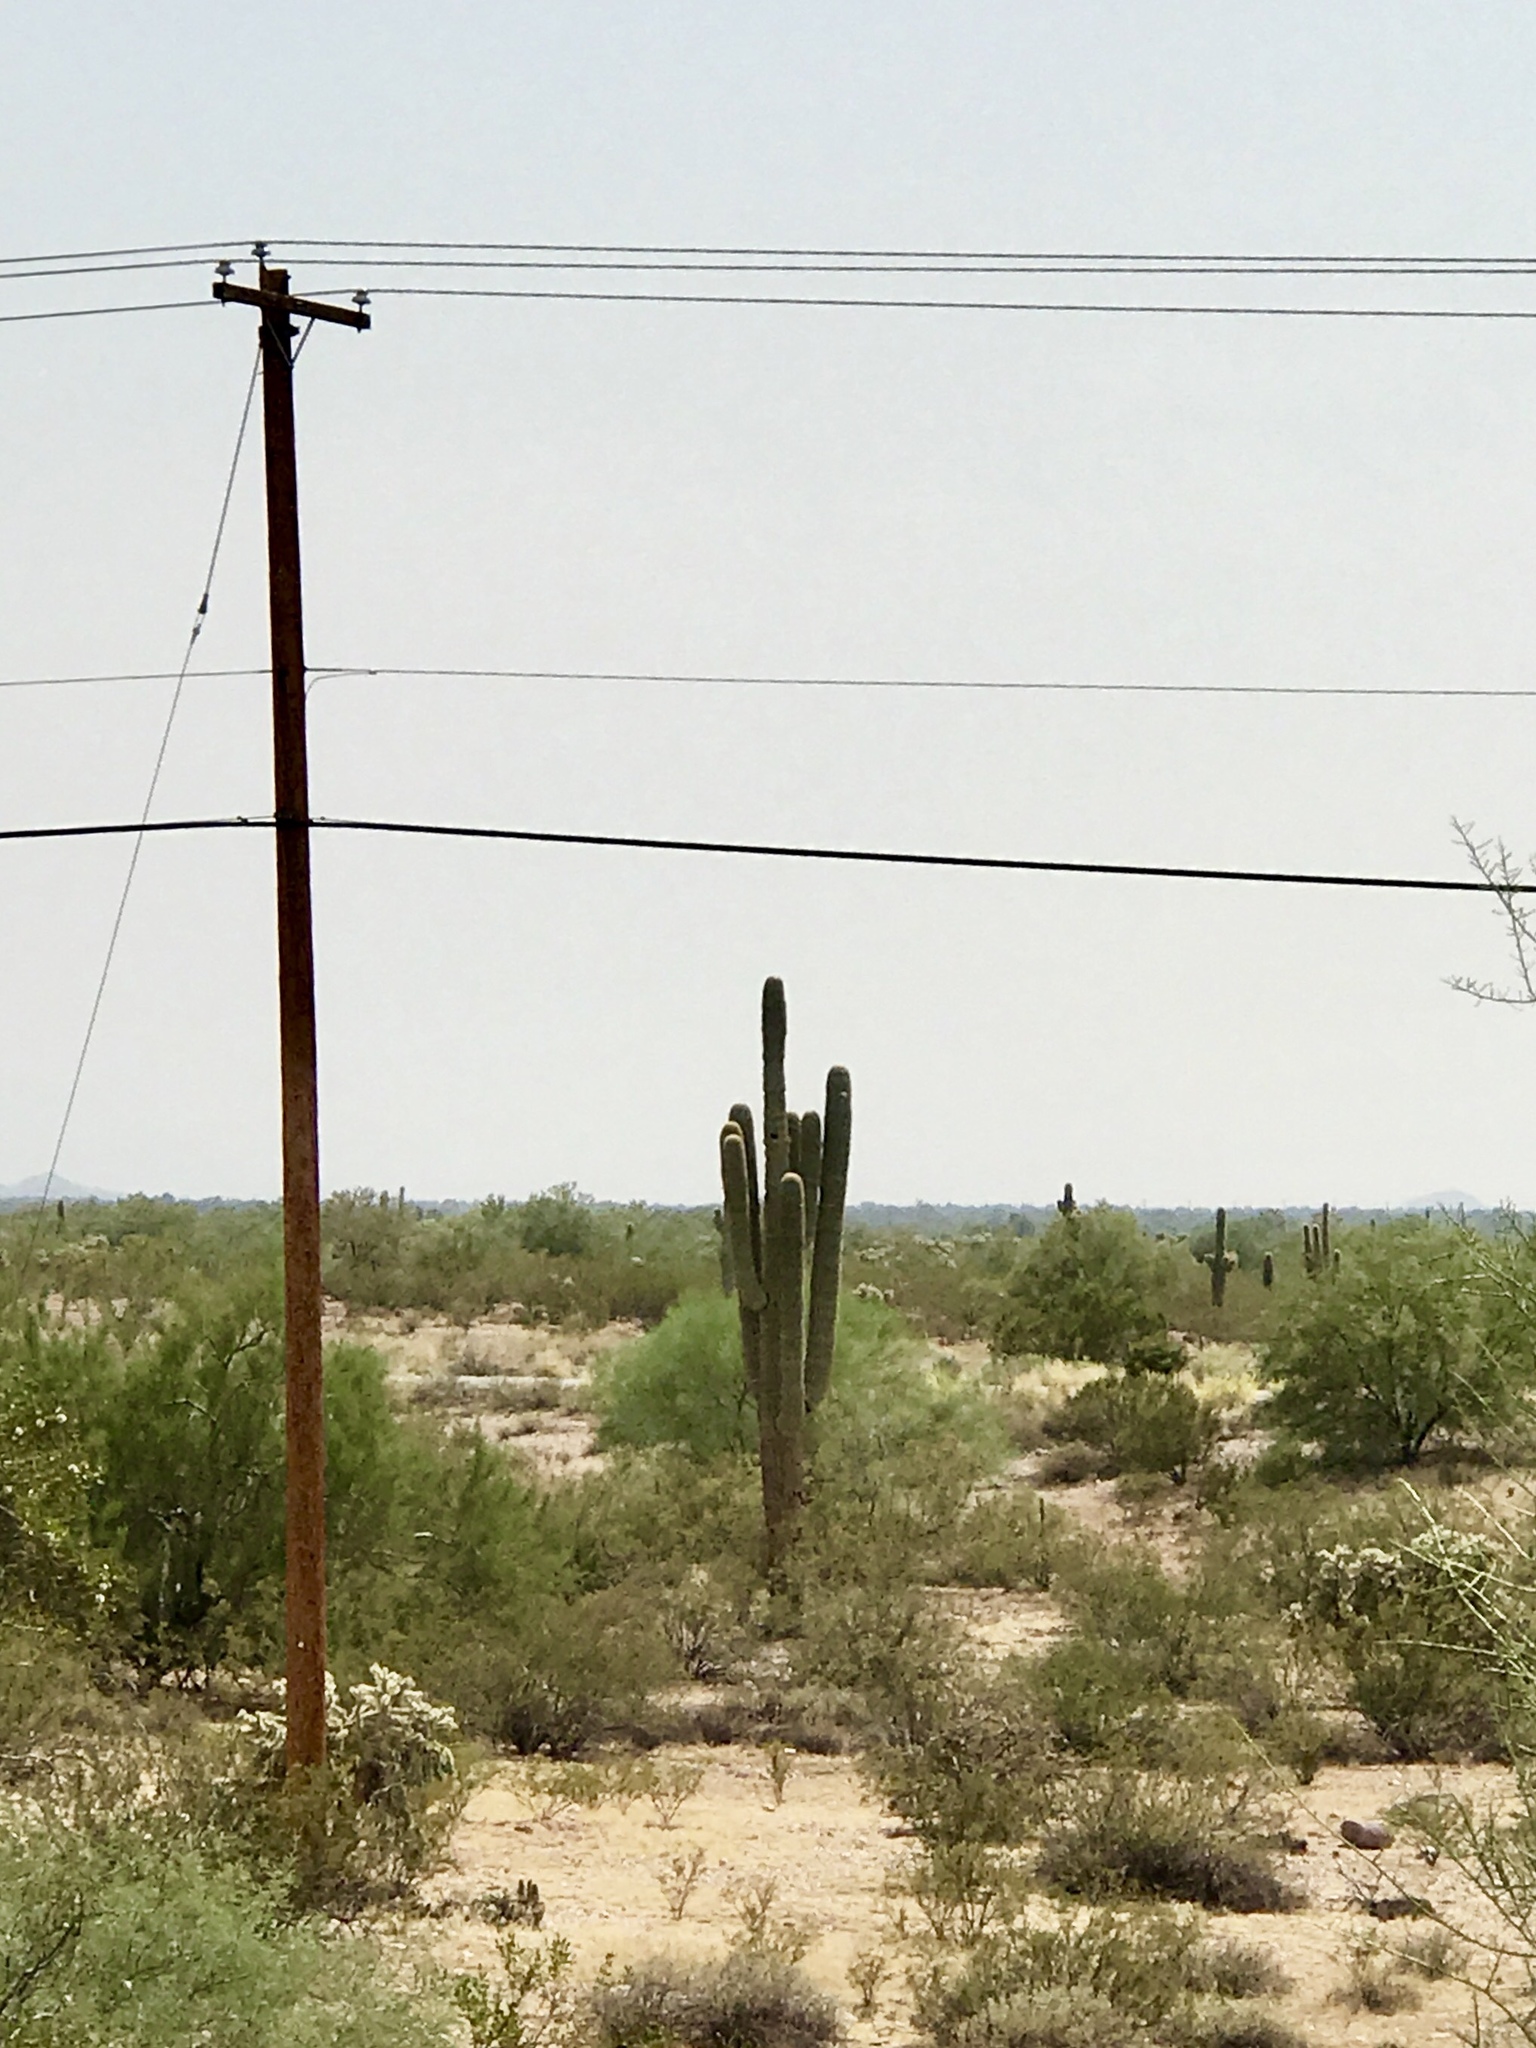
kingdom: Plantae
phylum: Tracheophyta
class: Magnoliopsida
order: Caryophyllales
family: Cactaceae
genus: Carnegiea
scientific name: Carnegiea gigantea
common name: Saguaro
